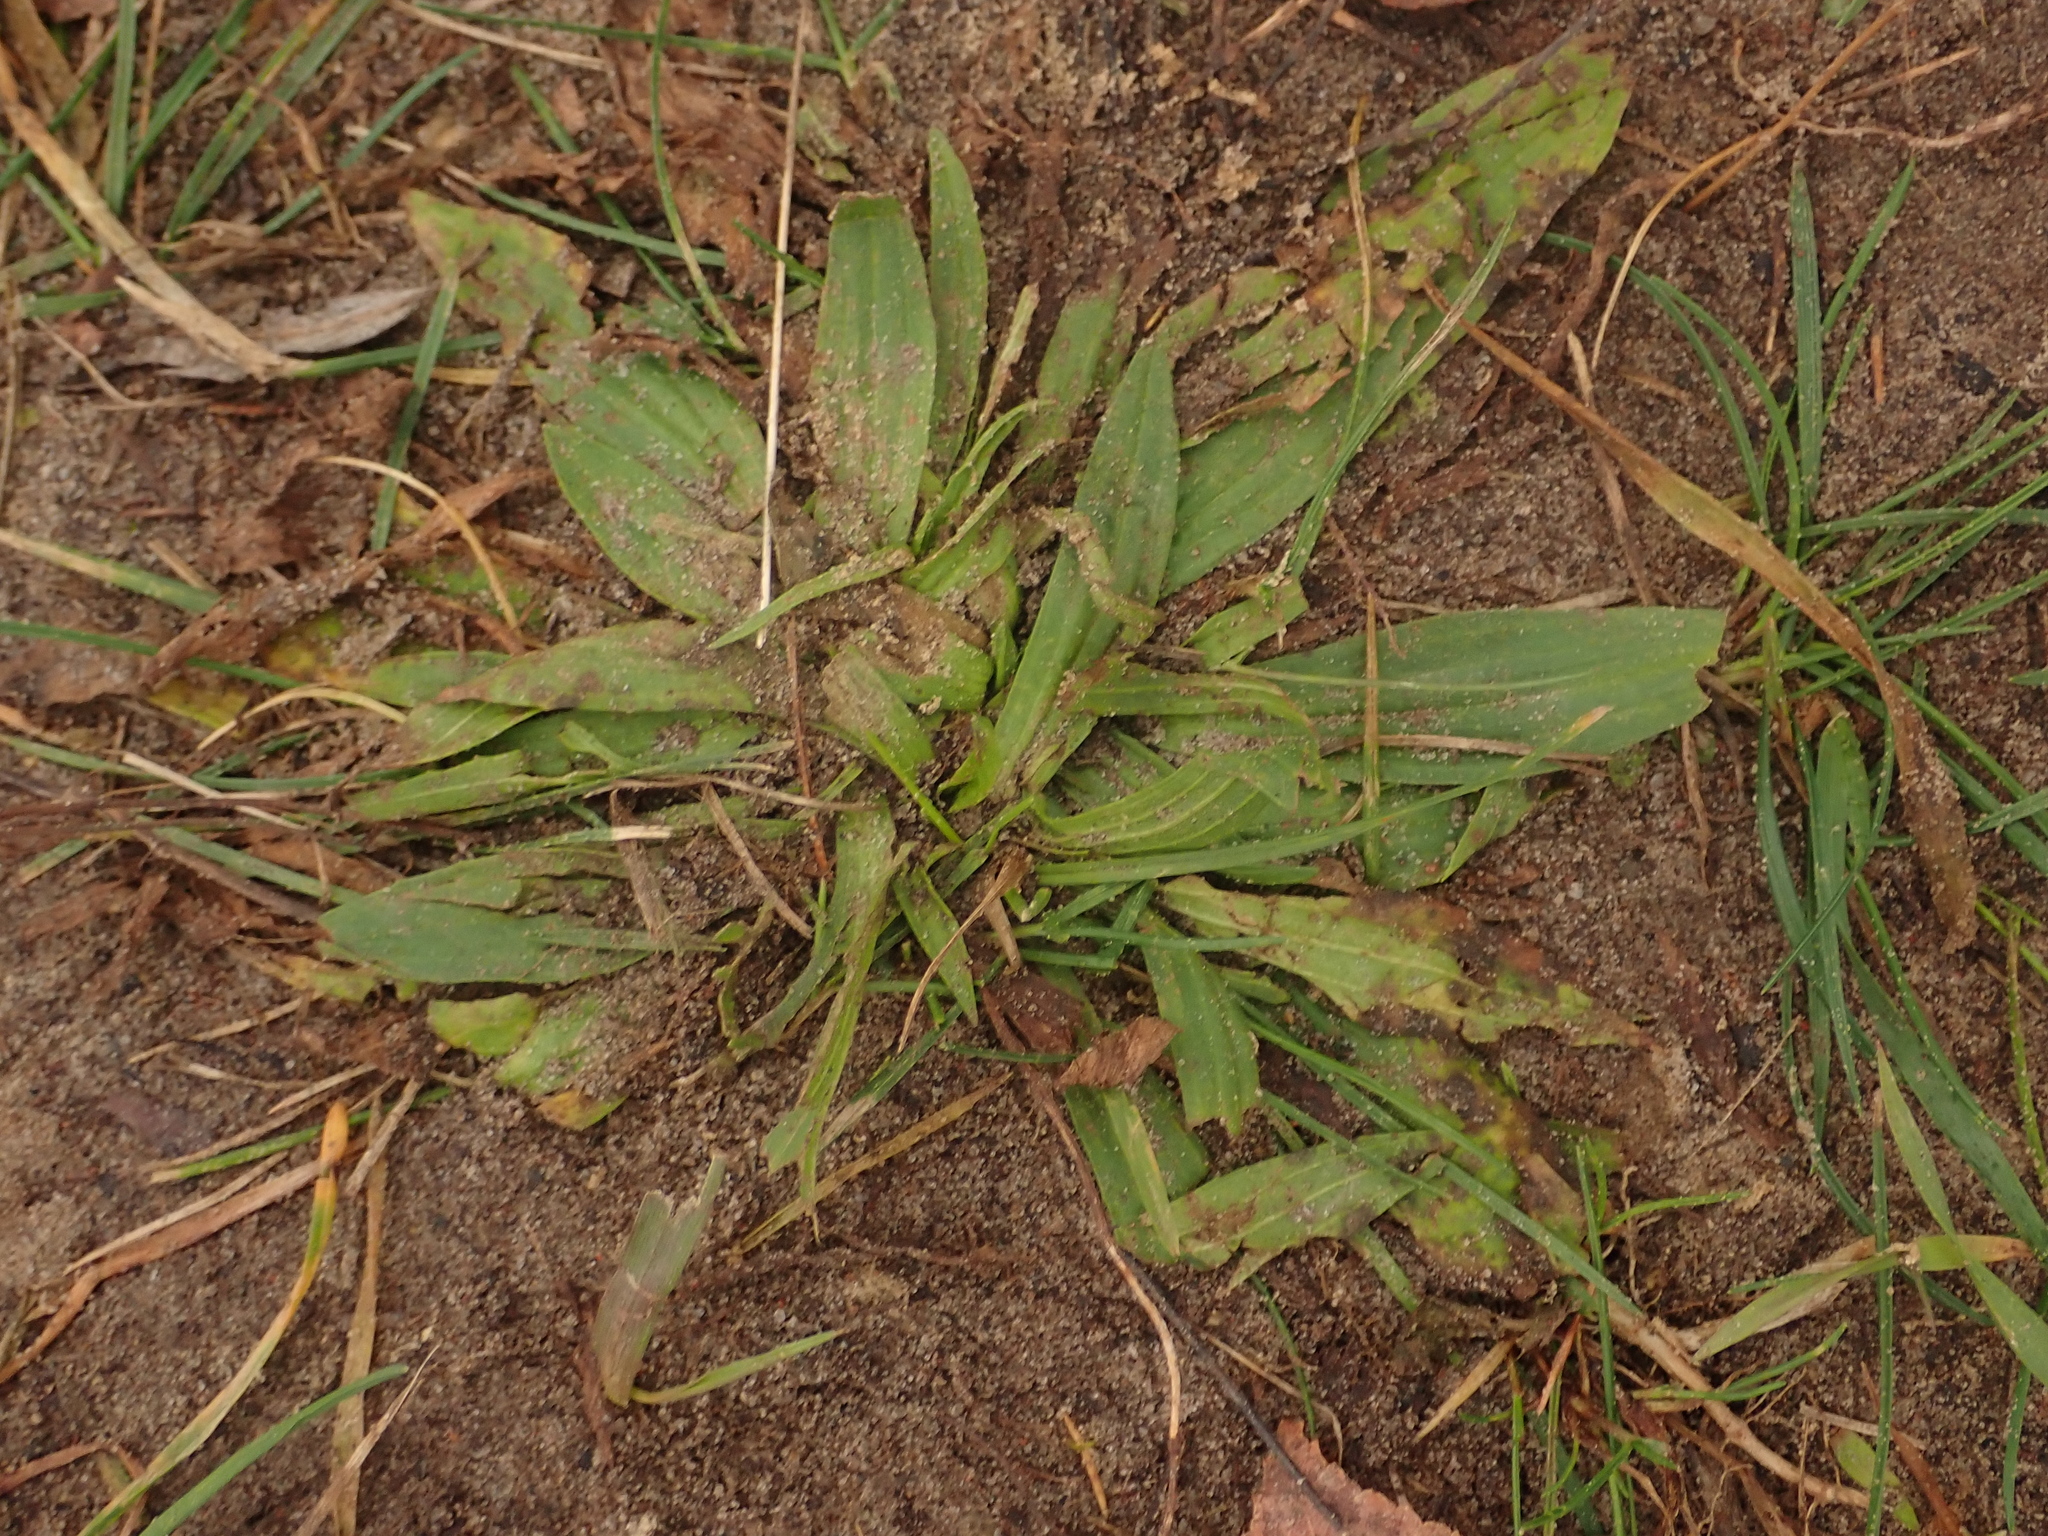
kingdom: Plantae
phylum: Tracheophyta
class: Magnoliopsida
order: Lamiales
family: Plantaginaceae
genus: Plantago
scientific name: Plantago lanceolata
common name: Ribwort plantain
